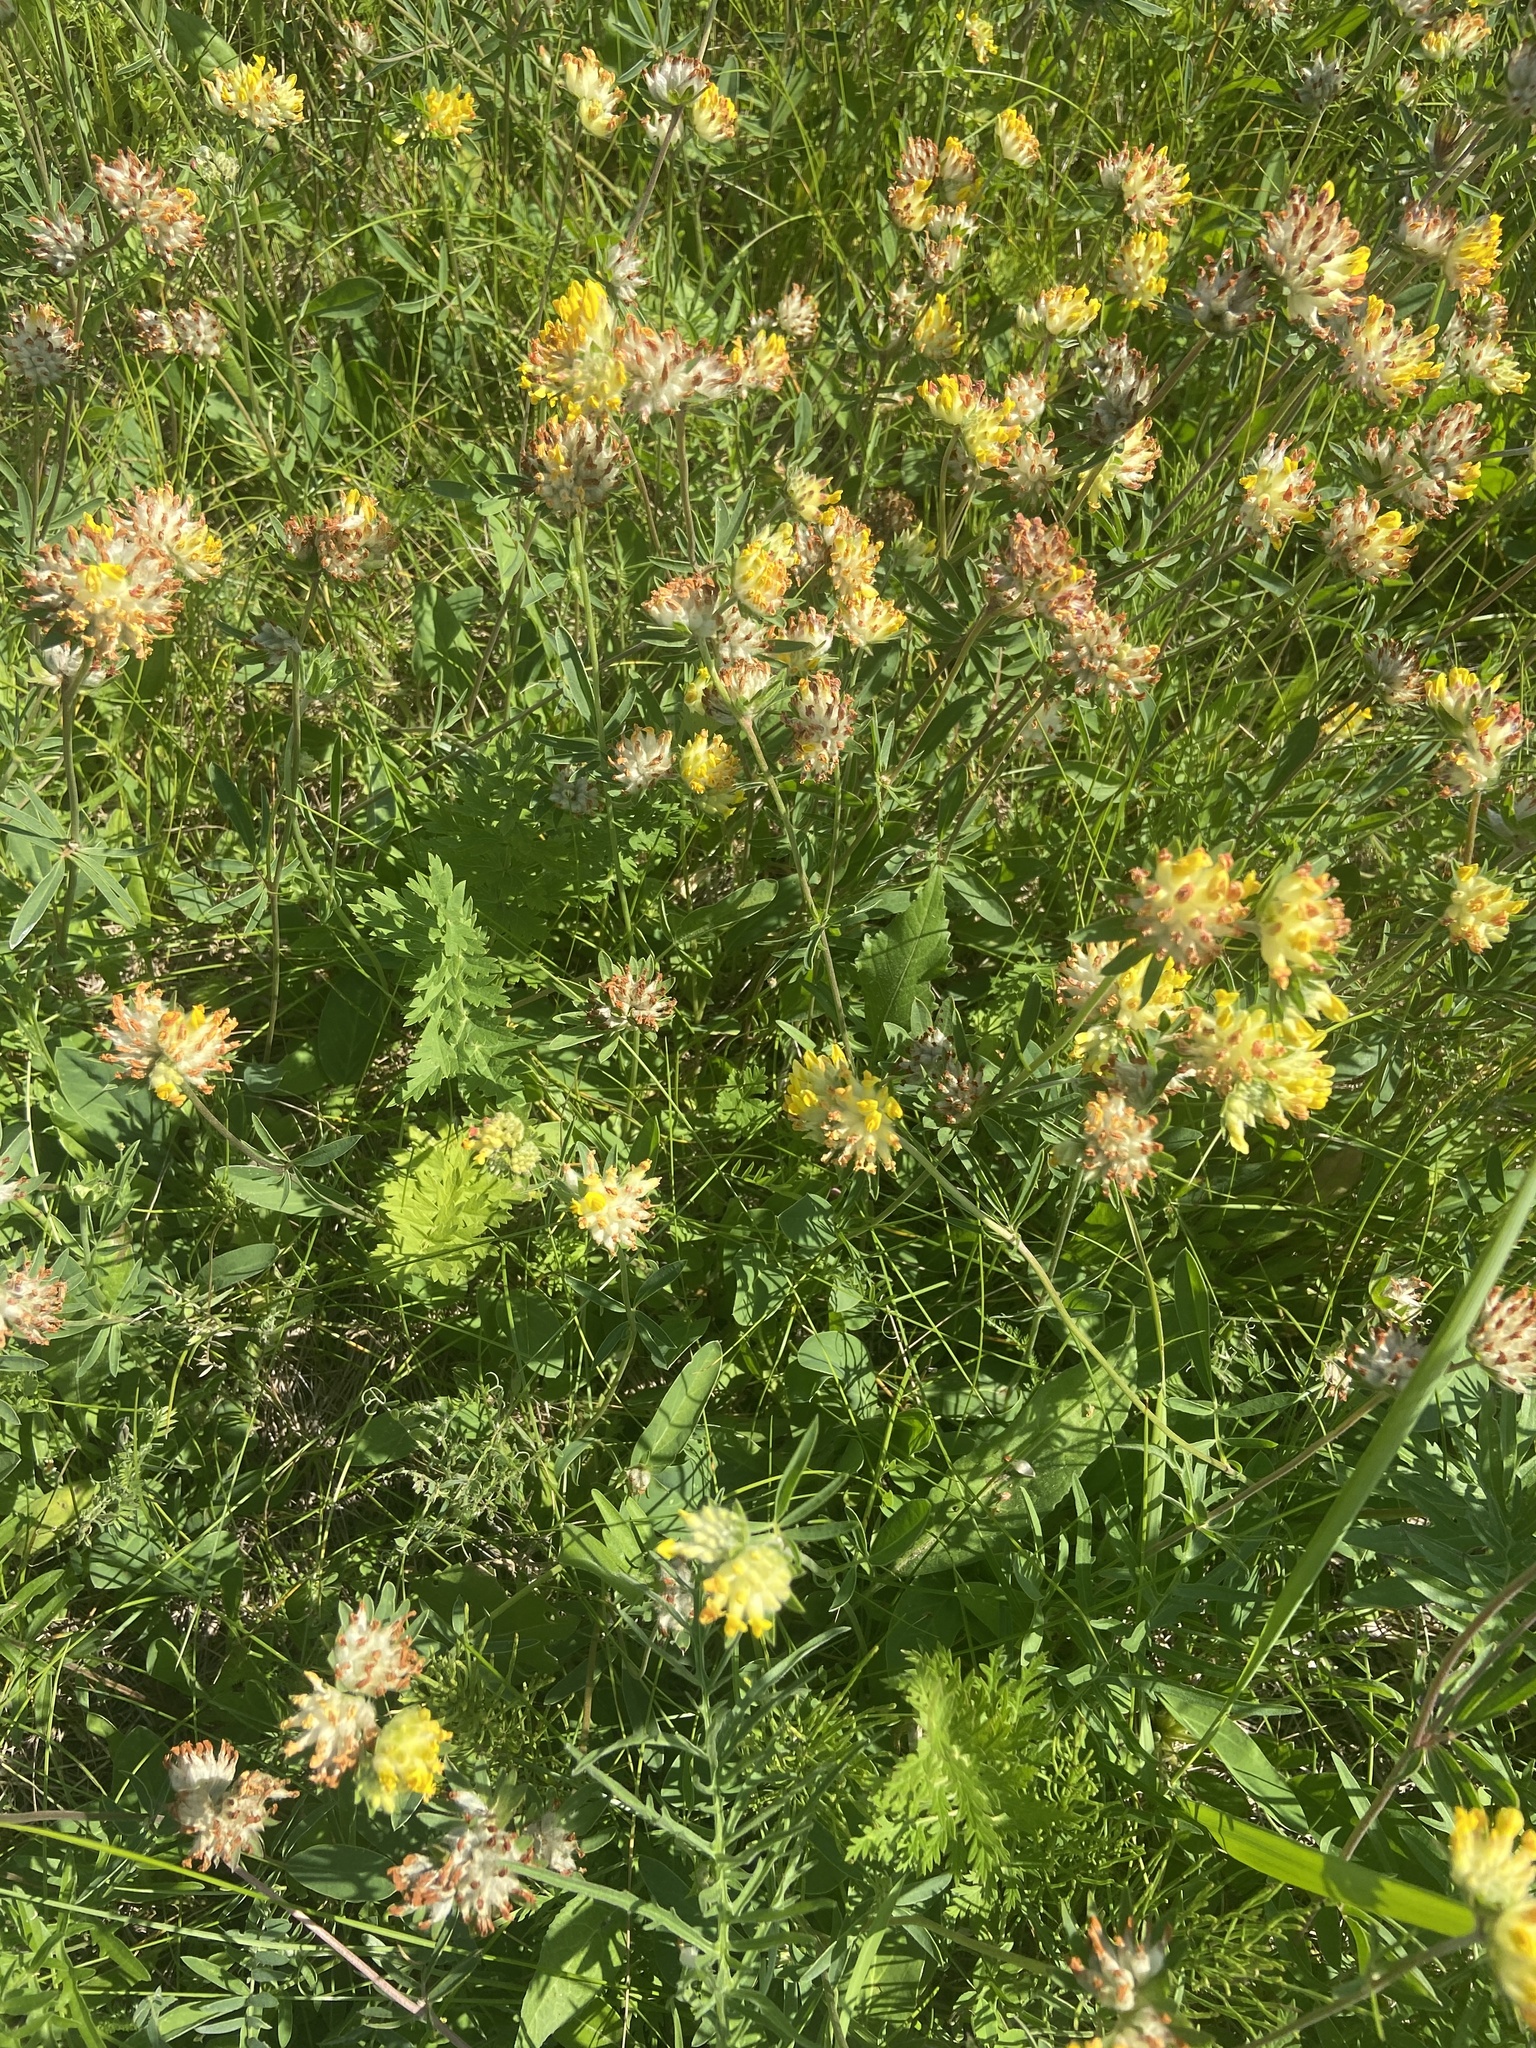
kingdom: Plantae
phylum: Tracheophyta
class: Magnoliopsida
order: Fabales
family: Fabaceae
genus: Anthyllis
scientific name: Anthyllis vulneraria
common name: Kidney vetch
